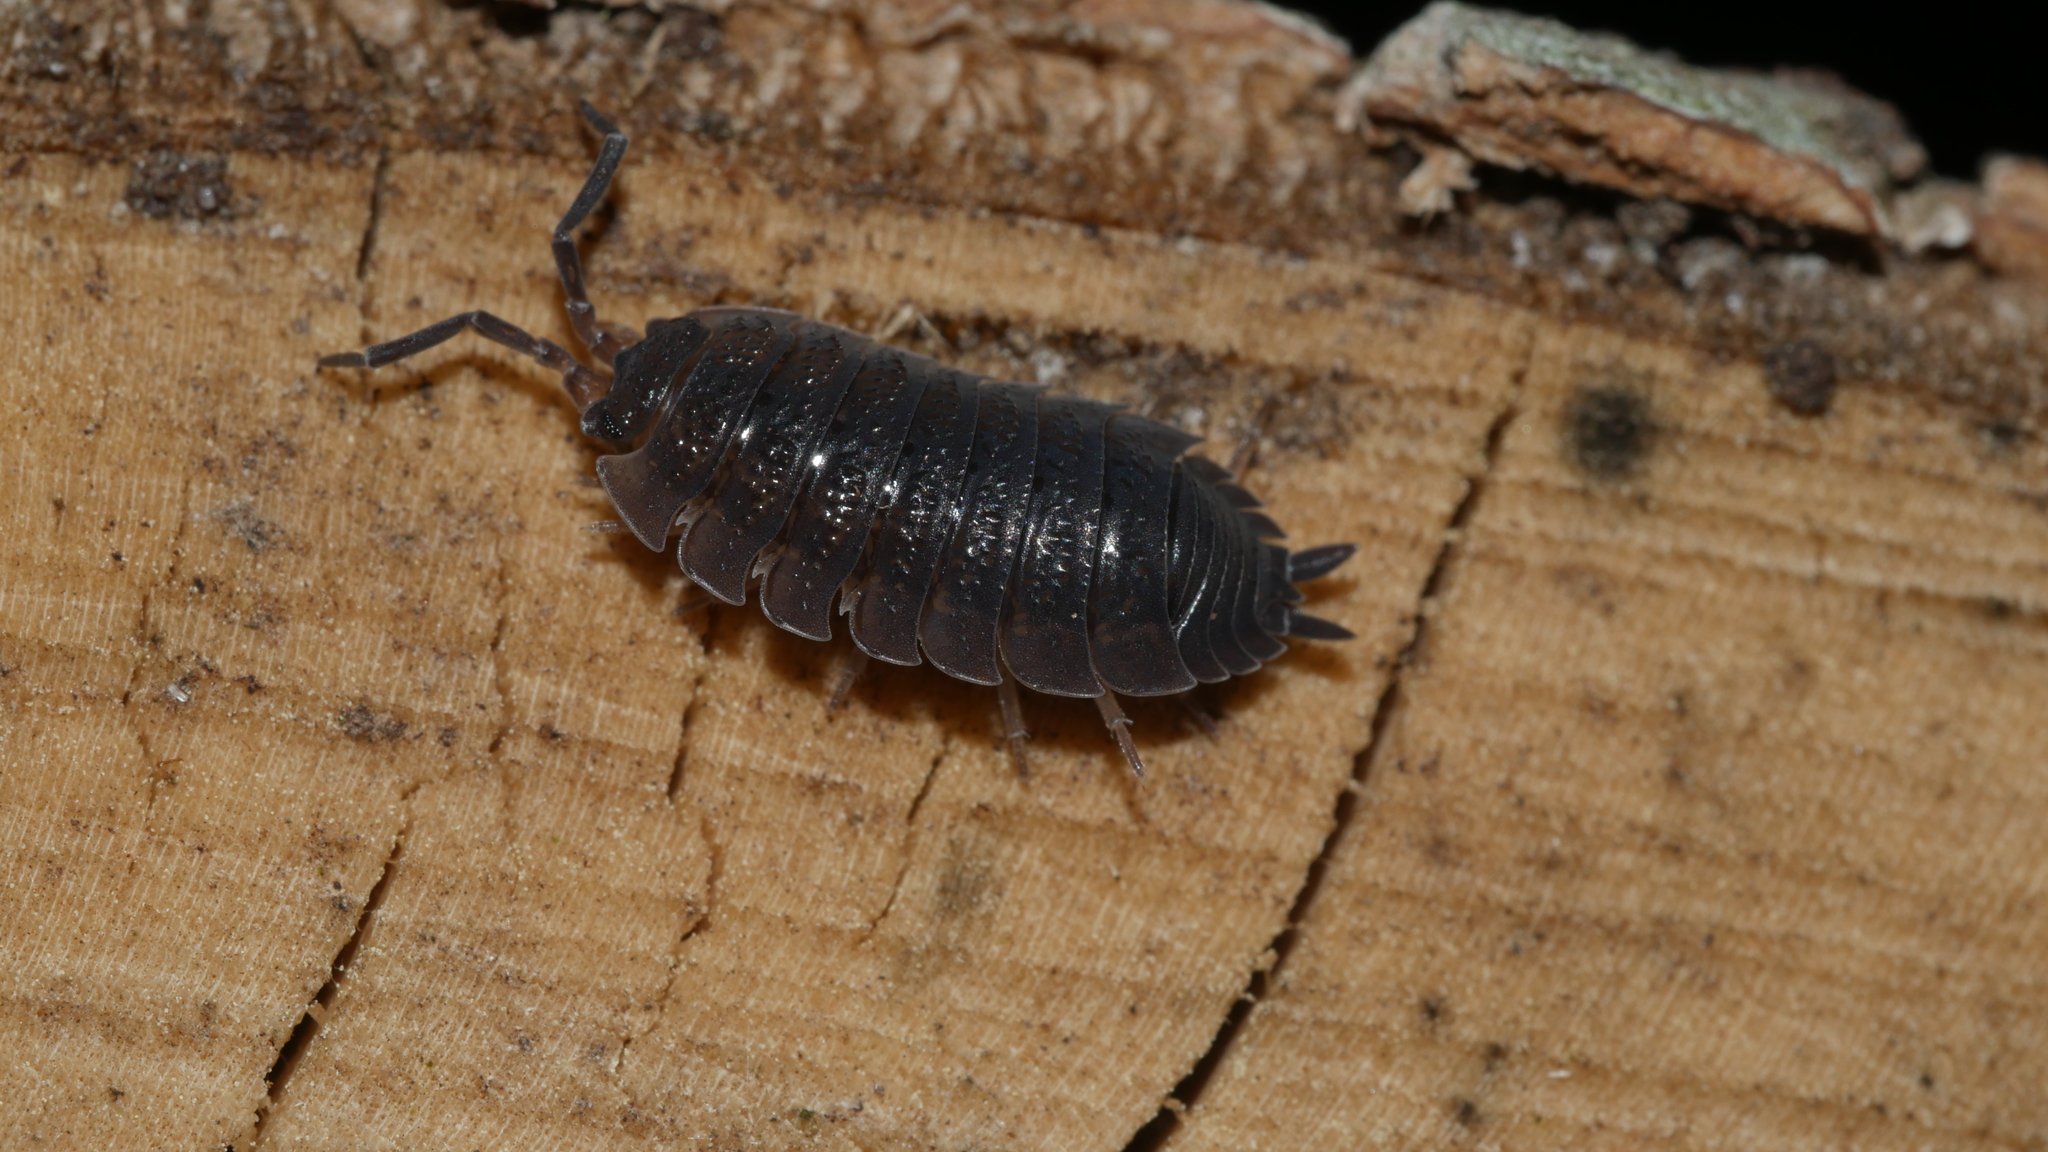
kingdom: Animalia
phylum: Arthropoda
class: Malacostraca
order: Isopoda
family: Porcellionidae
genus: Porcellio
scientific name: Porcellio scaber
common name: Common rough woodlouse
